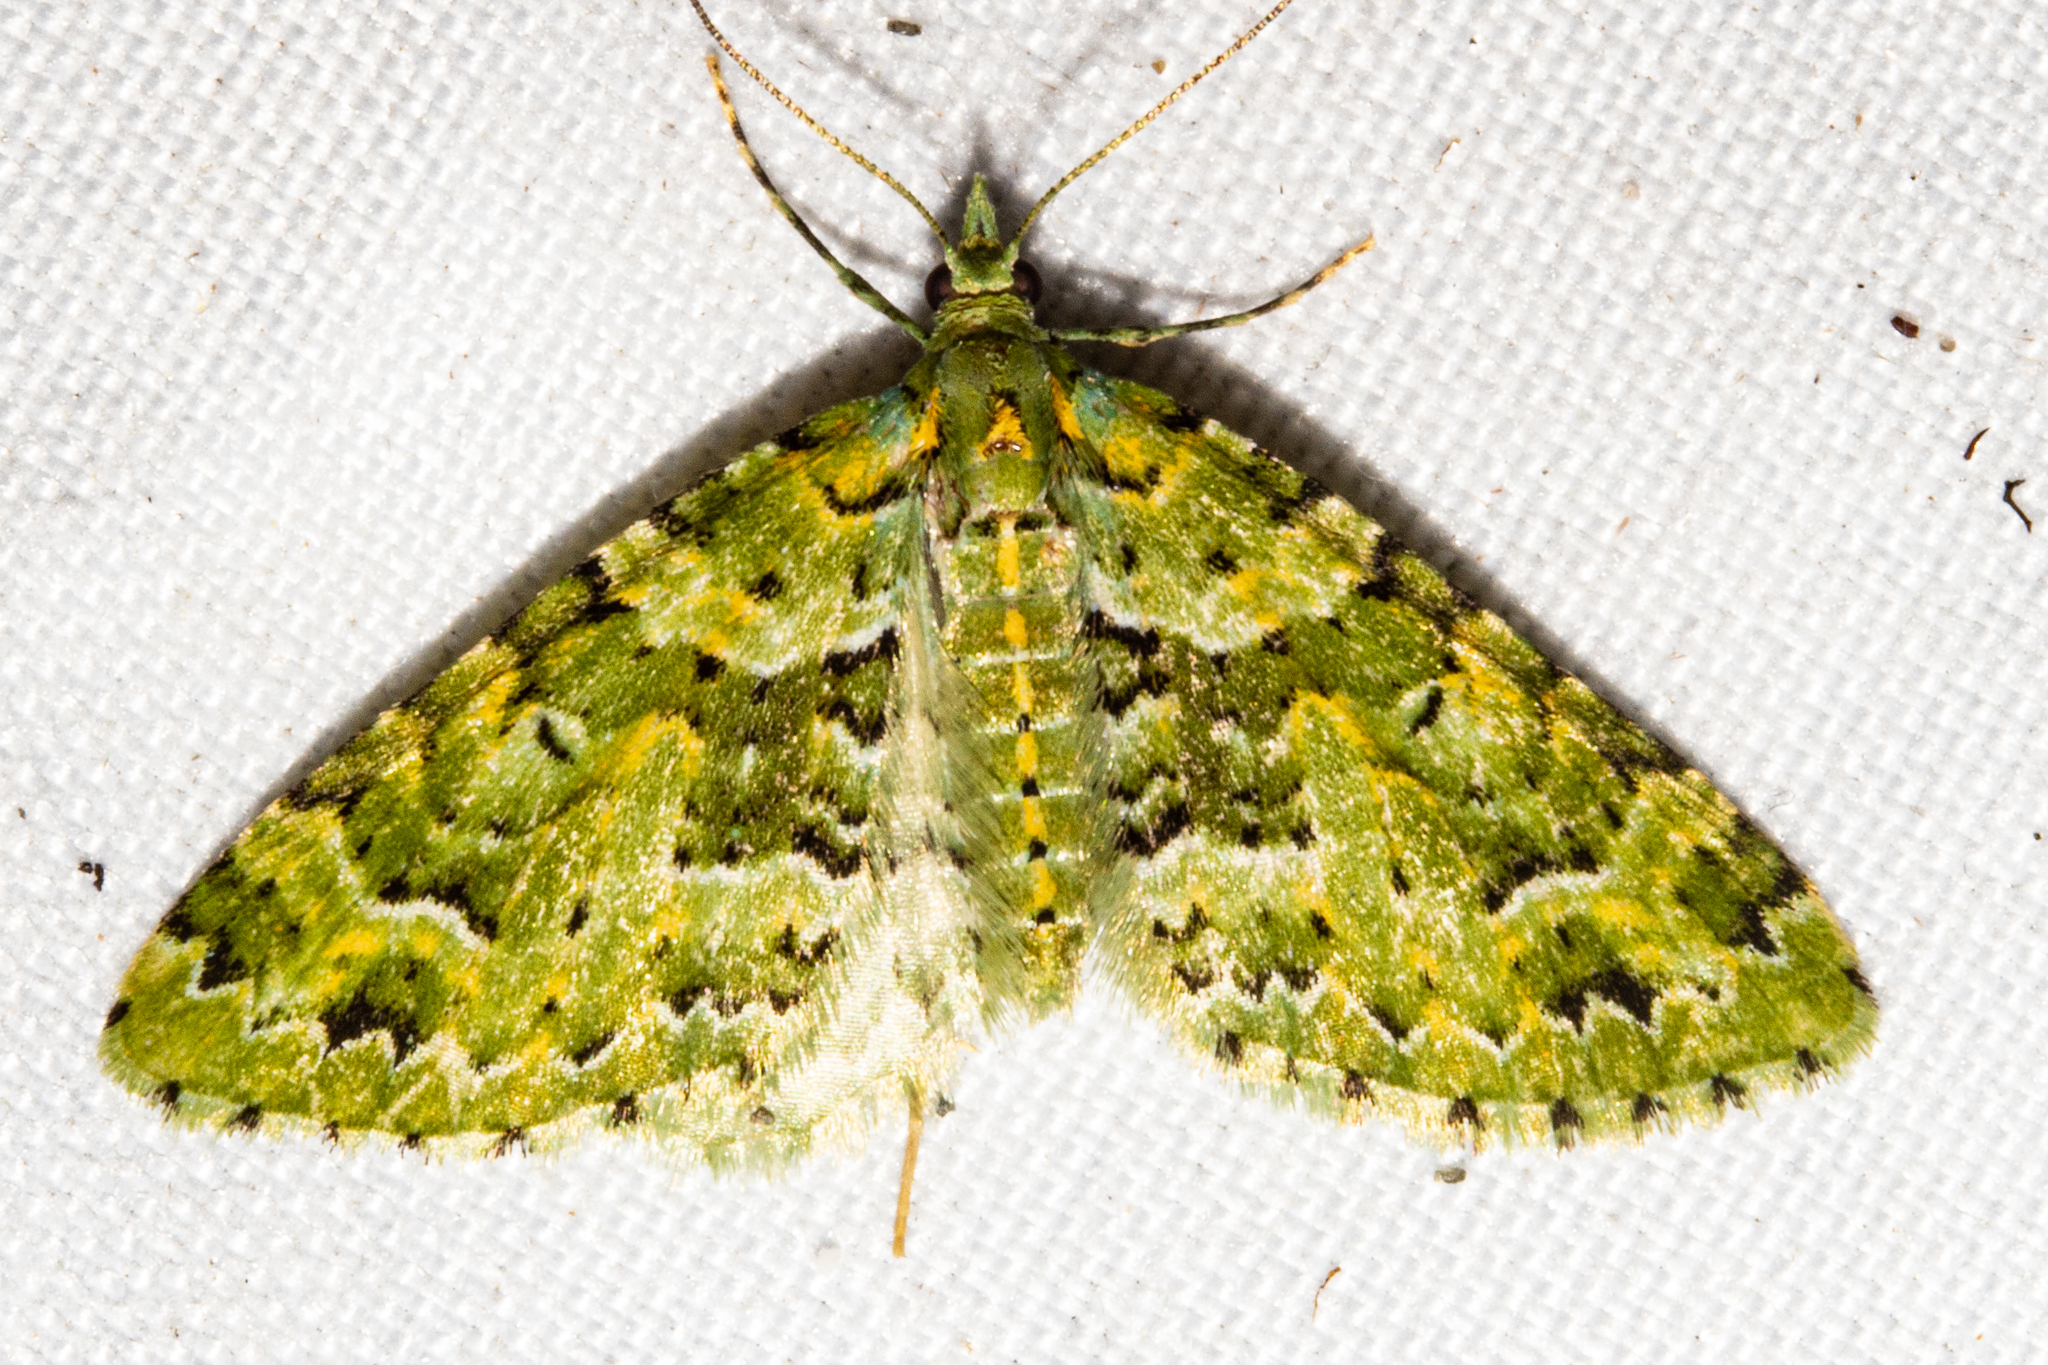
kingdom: Animalia
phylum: Arthropoda
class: Insecta
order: Lepidoptera
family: Geometridae
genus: Pasiphila
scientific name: Pasiphila melochlora
